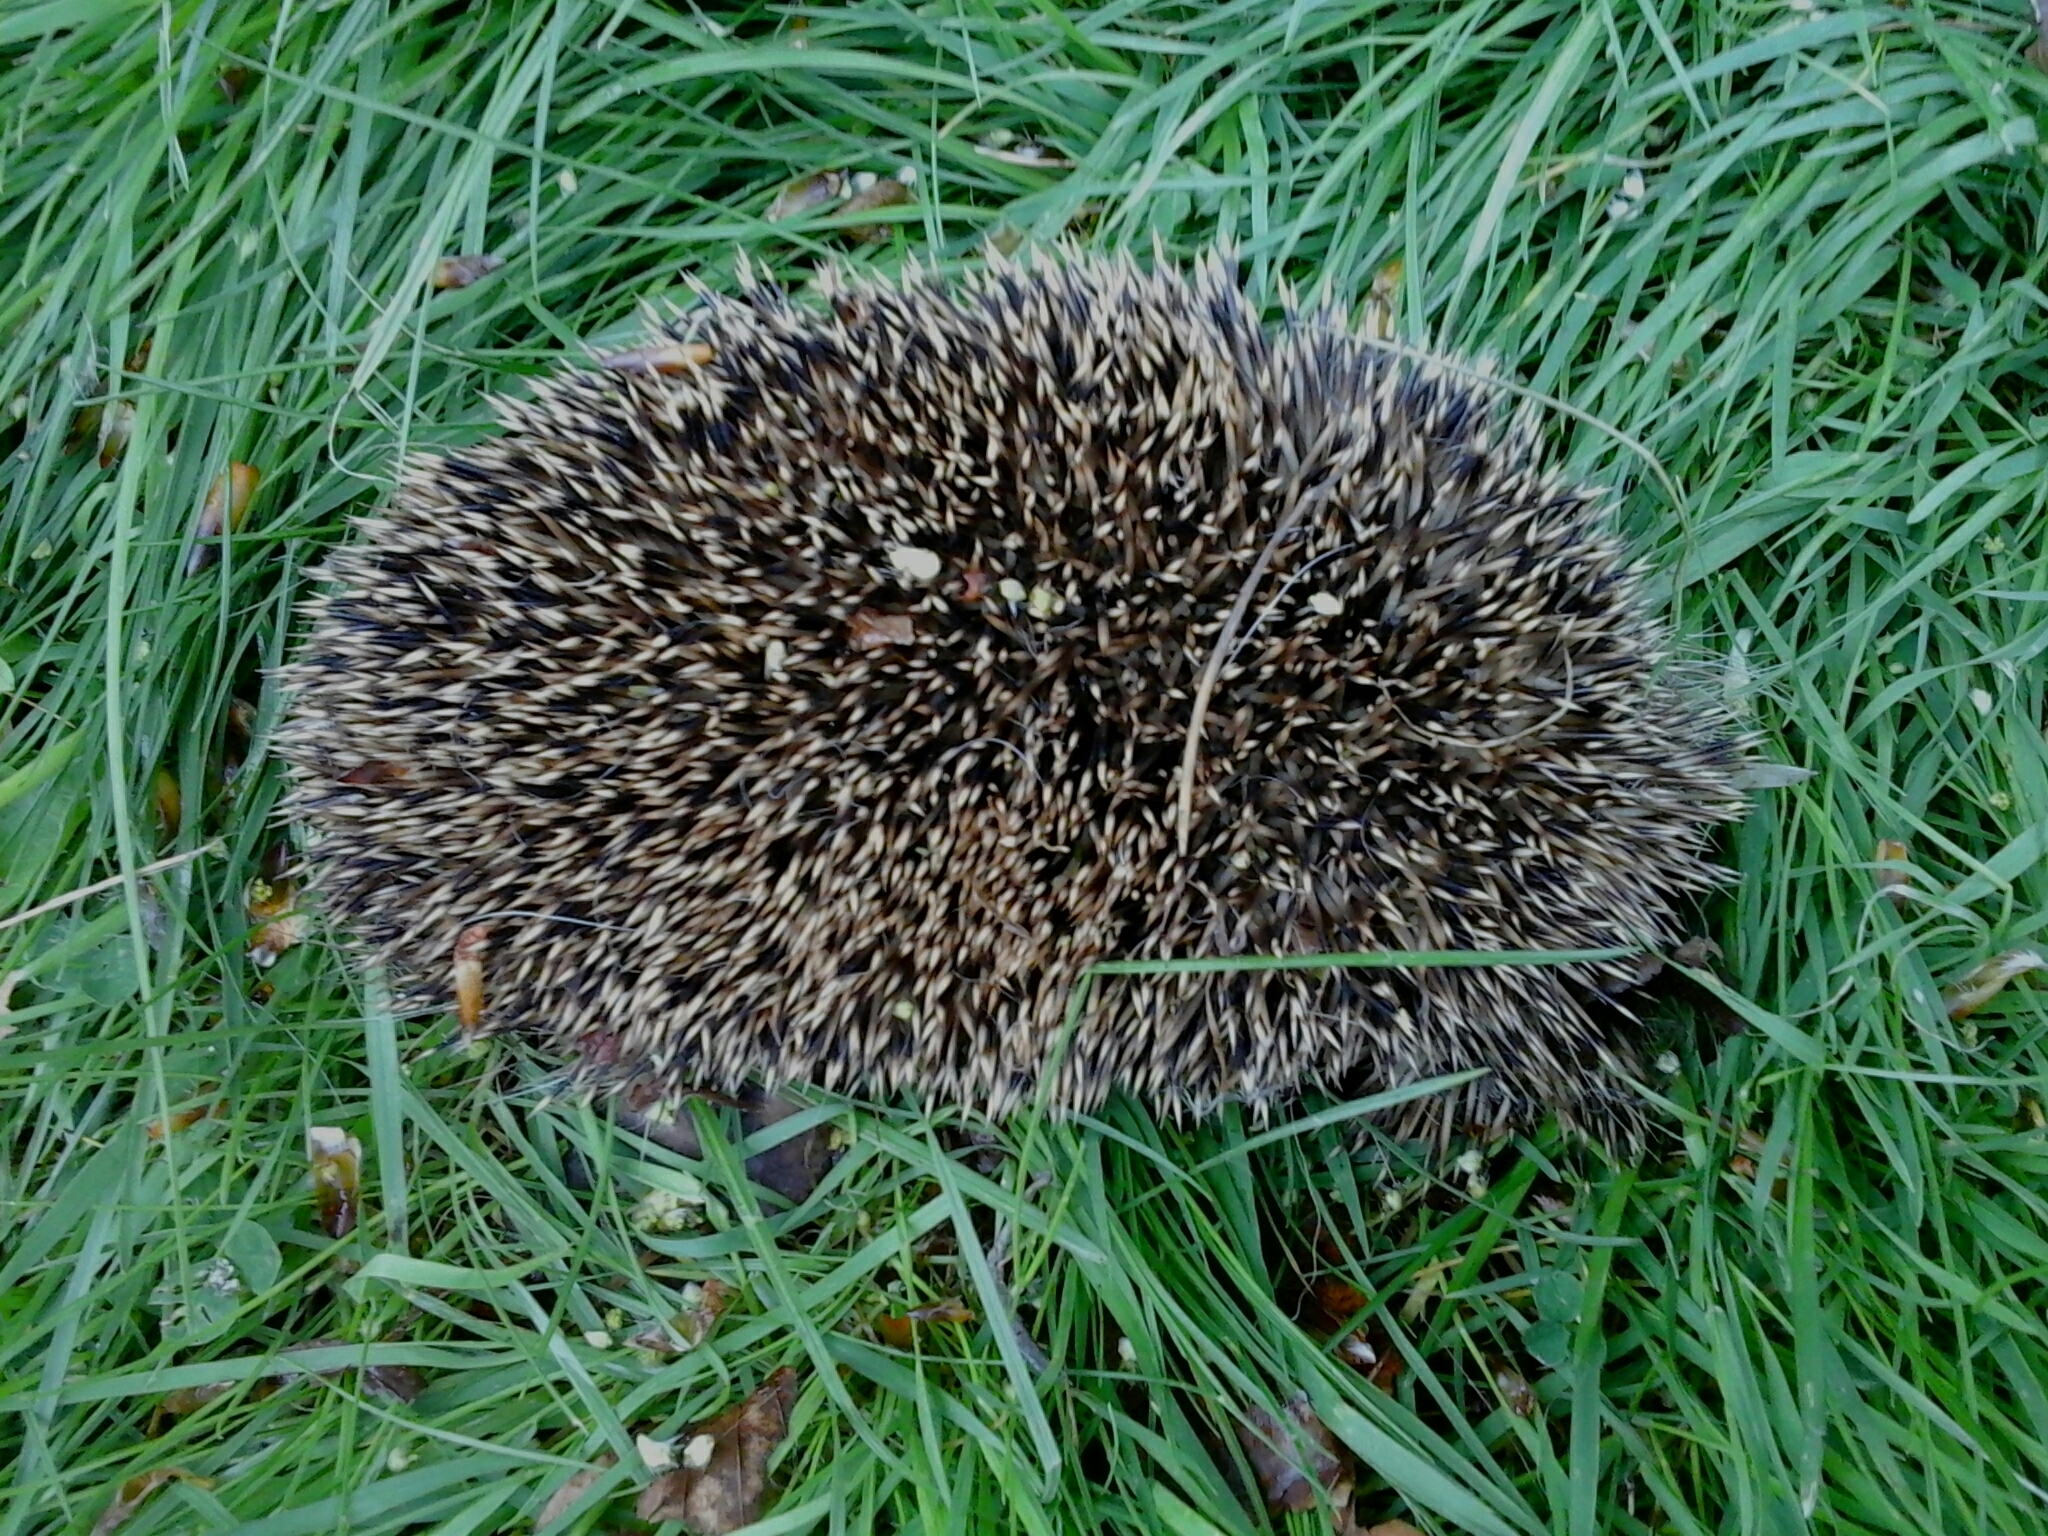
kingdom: Animalia
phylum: Chordata
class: Mammalia
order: Erinaceomorpha
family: Erinaceidae
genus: Erinaceus
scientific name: Erinaceus europaeus
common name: West european hedgehog
